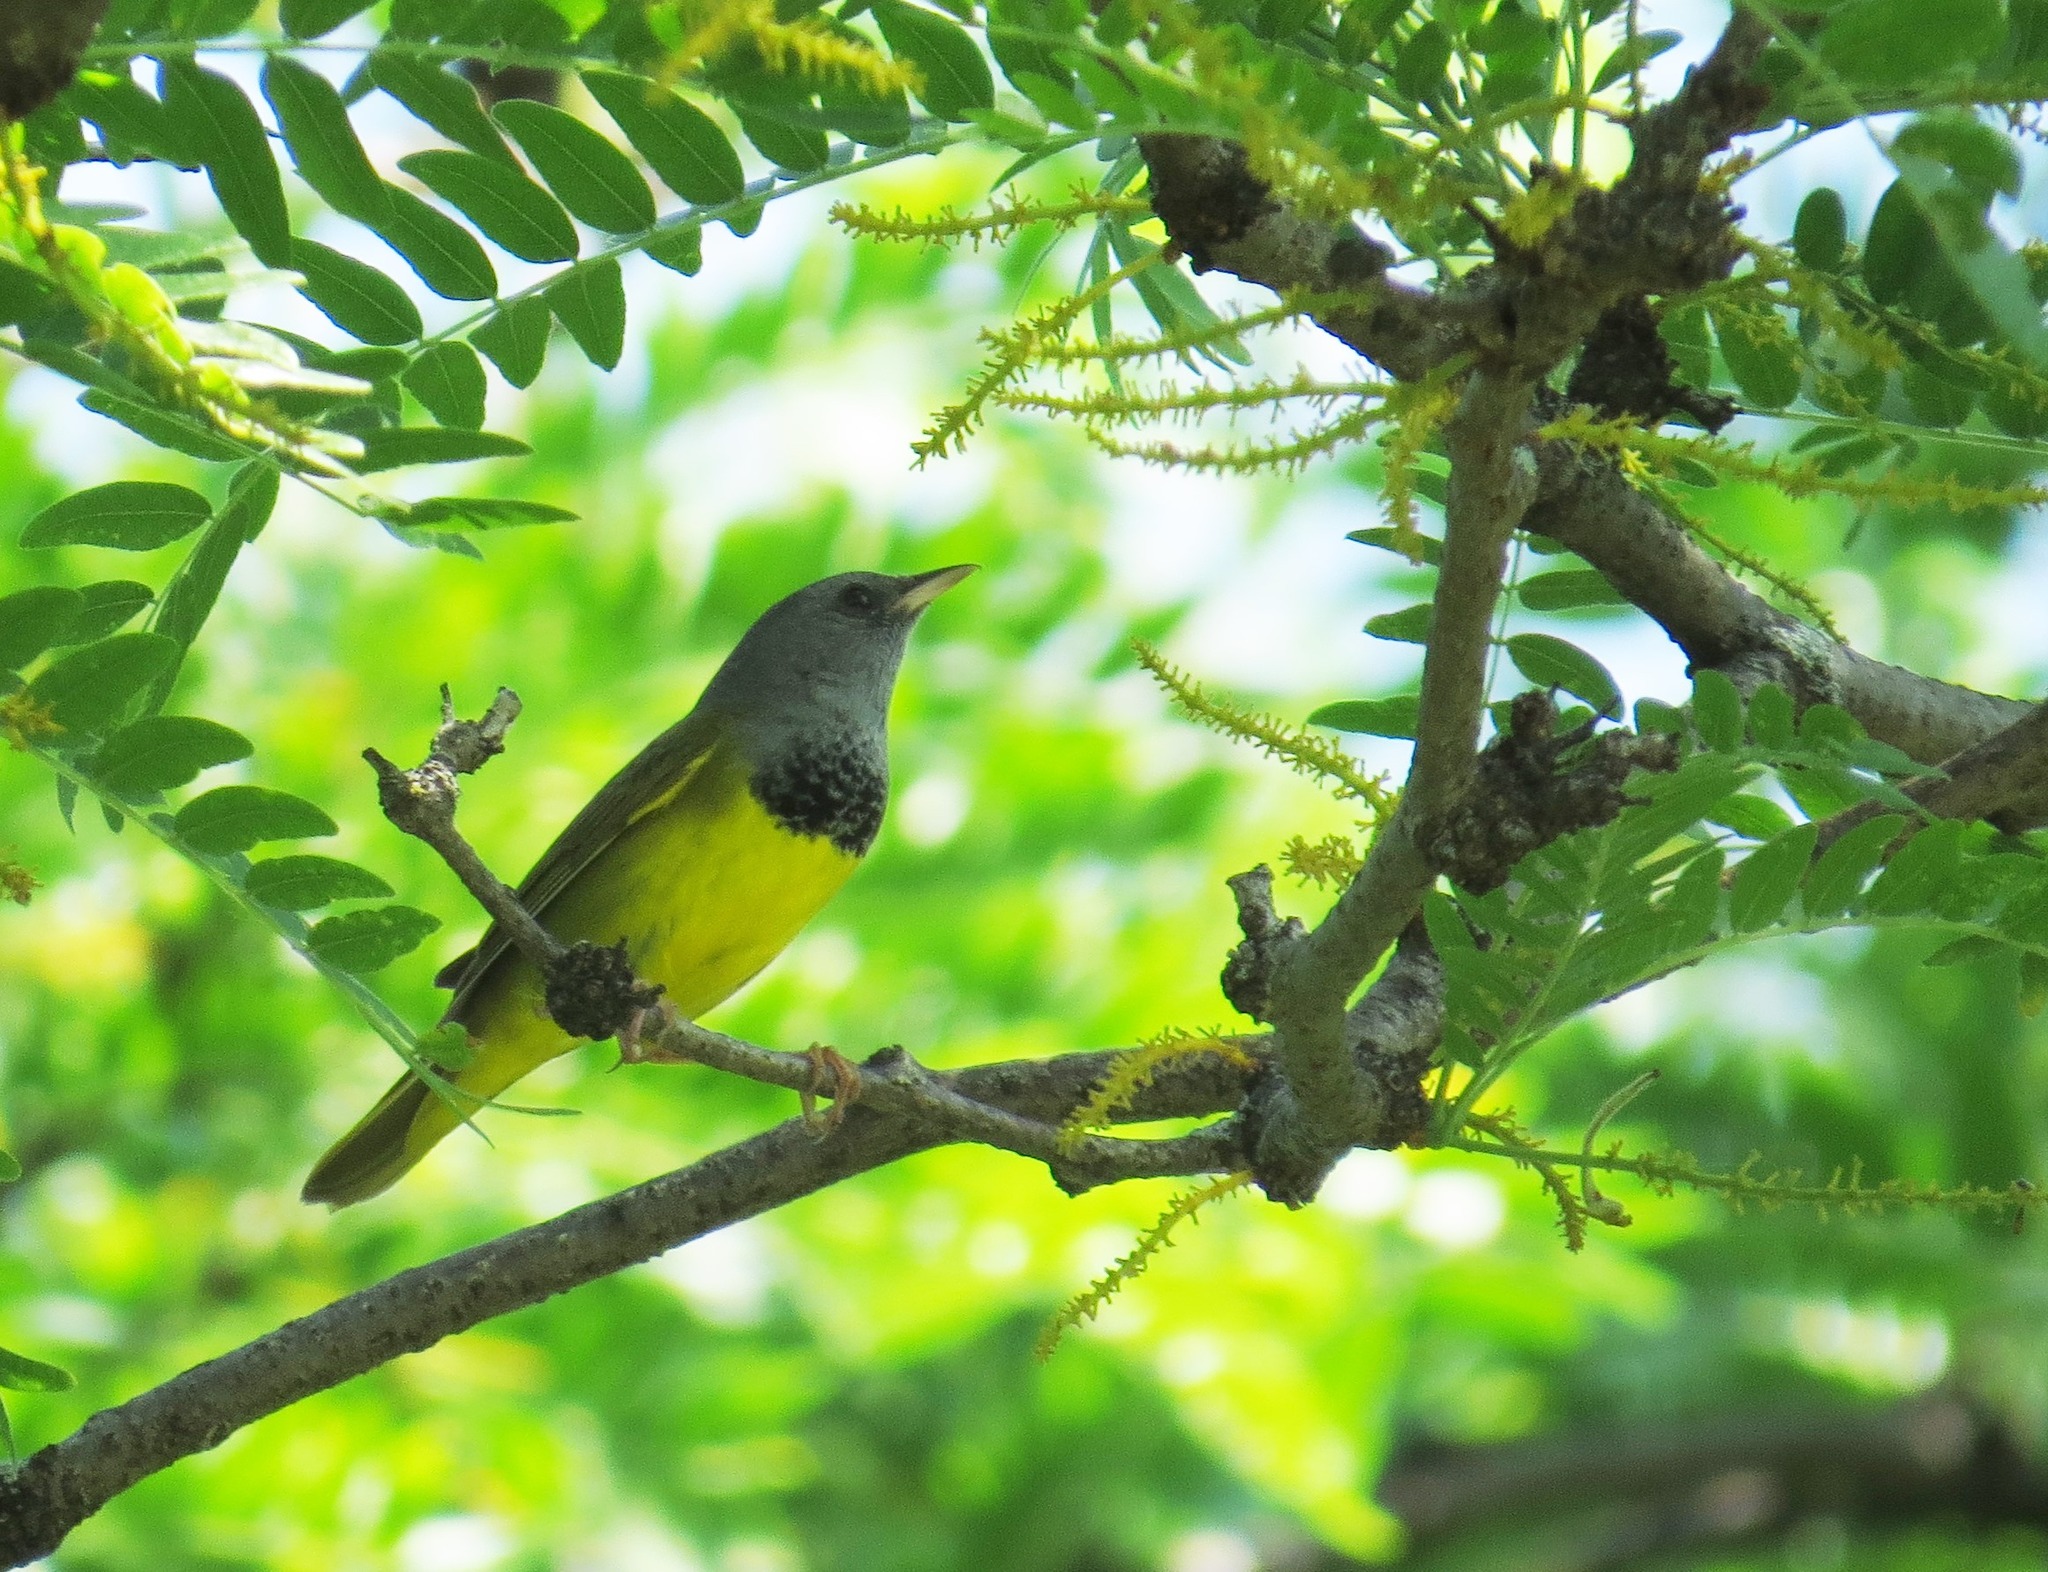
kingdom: Animalia
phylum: Chordata
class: Aves
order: Passeriformes
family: Parulidae
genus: Geothlypis
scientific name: Geothlypis philadelphia
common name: Mourning warbler
